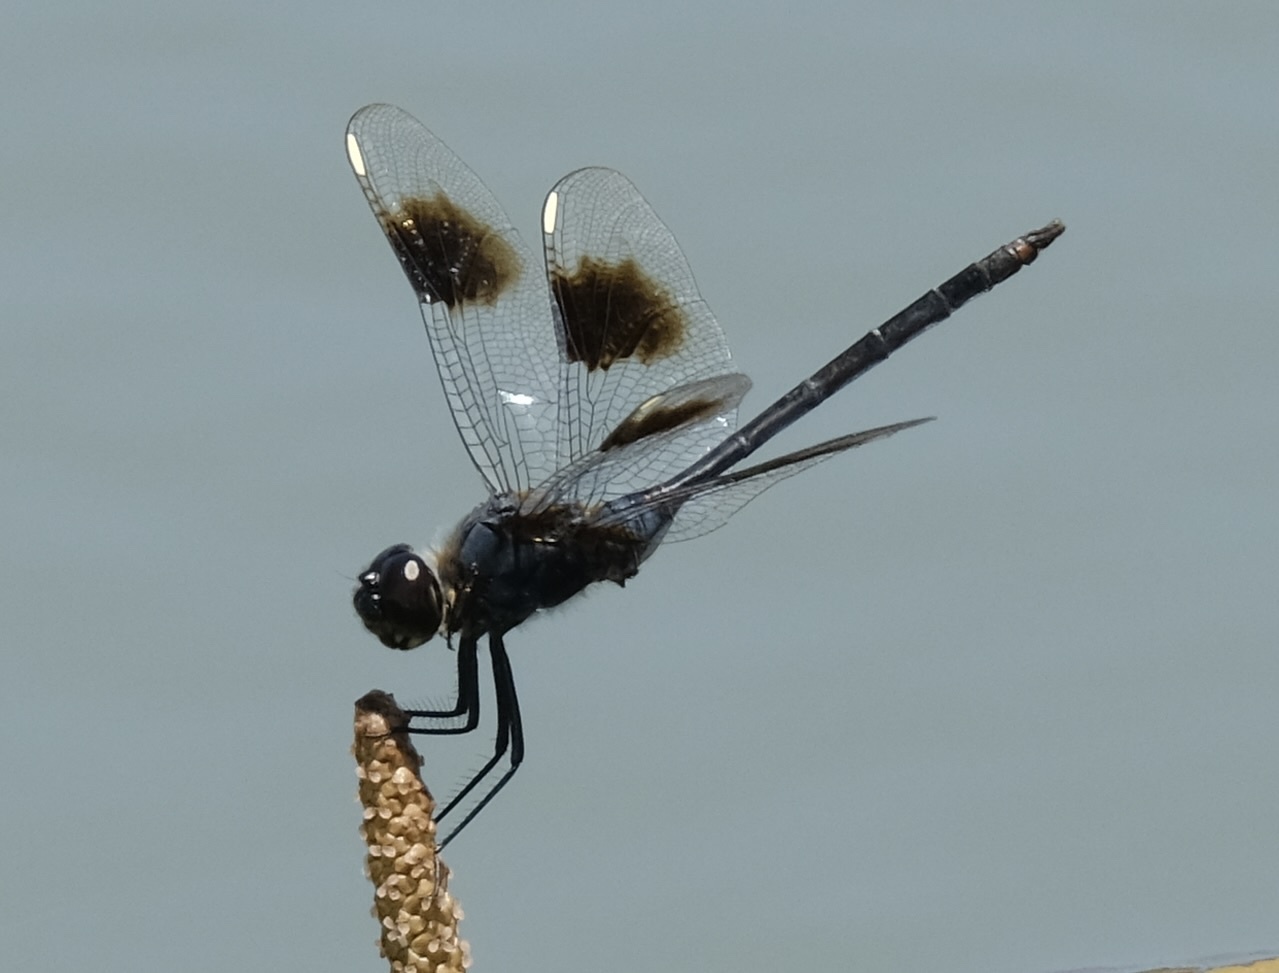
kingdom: Animalia
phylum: Arthropoda
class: Insecta
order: Odonata
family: Libellulidae
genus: Brachymesia
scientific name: Brachymesia gravida
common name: Four-spotted pennant
